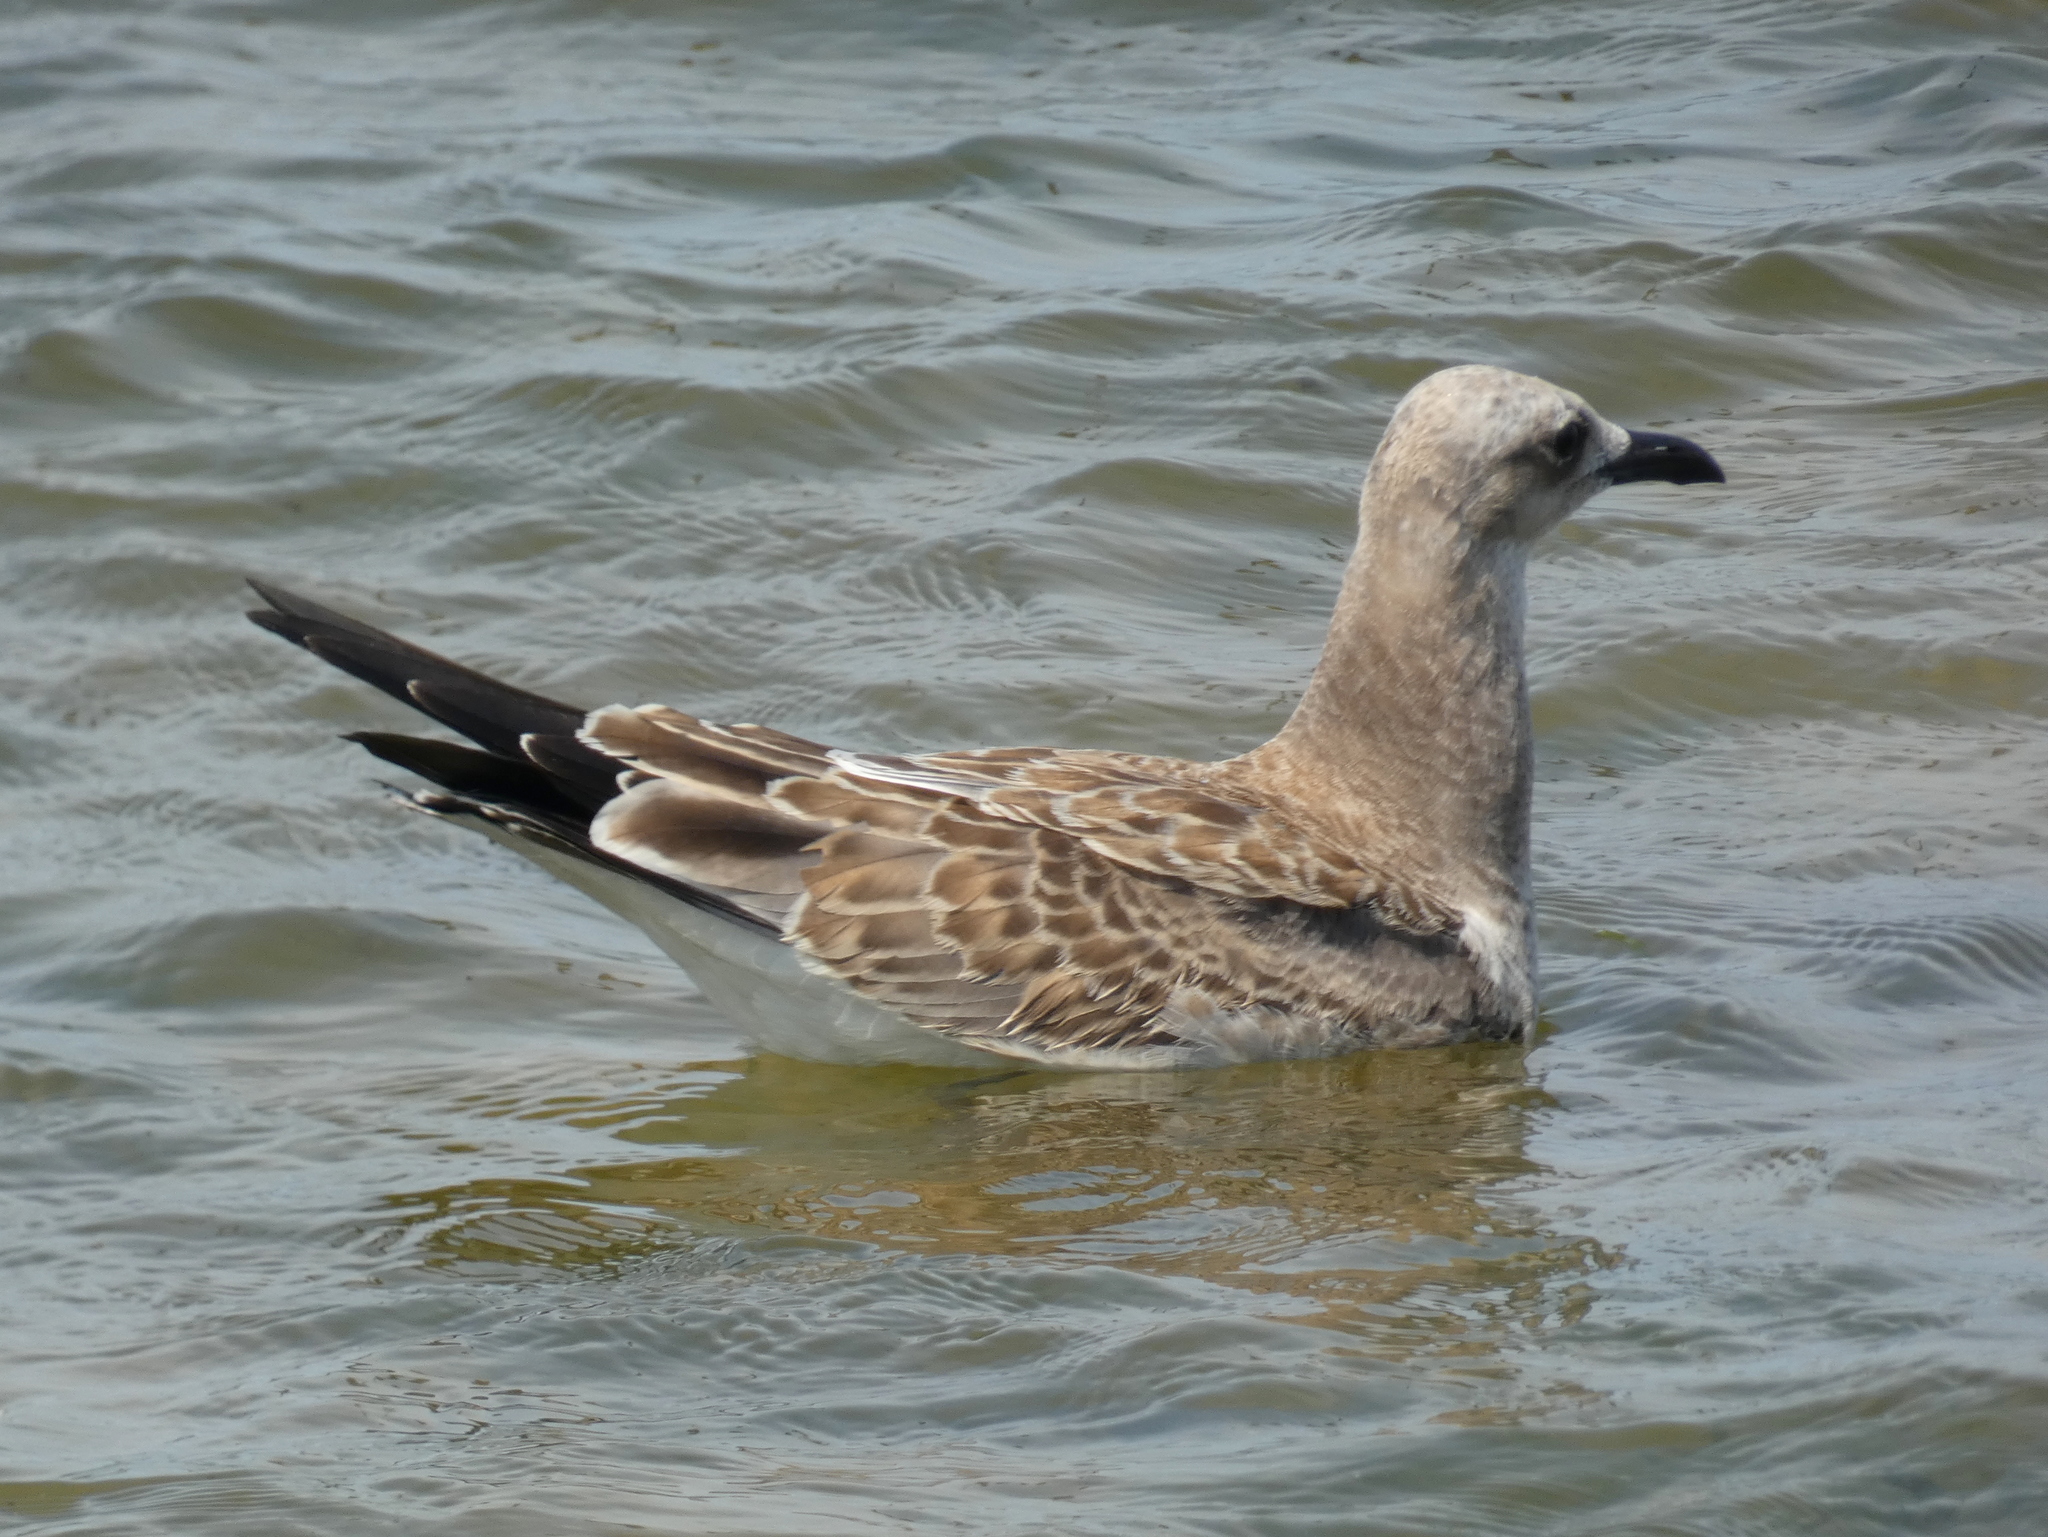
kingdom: Animalia
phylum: Chordata
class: Aves
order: Charadriiformes
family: Laridae
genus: Leucophaeus
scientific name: Leucophaeus atricilla
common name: Laughing gull
